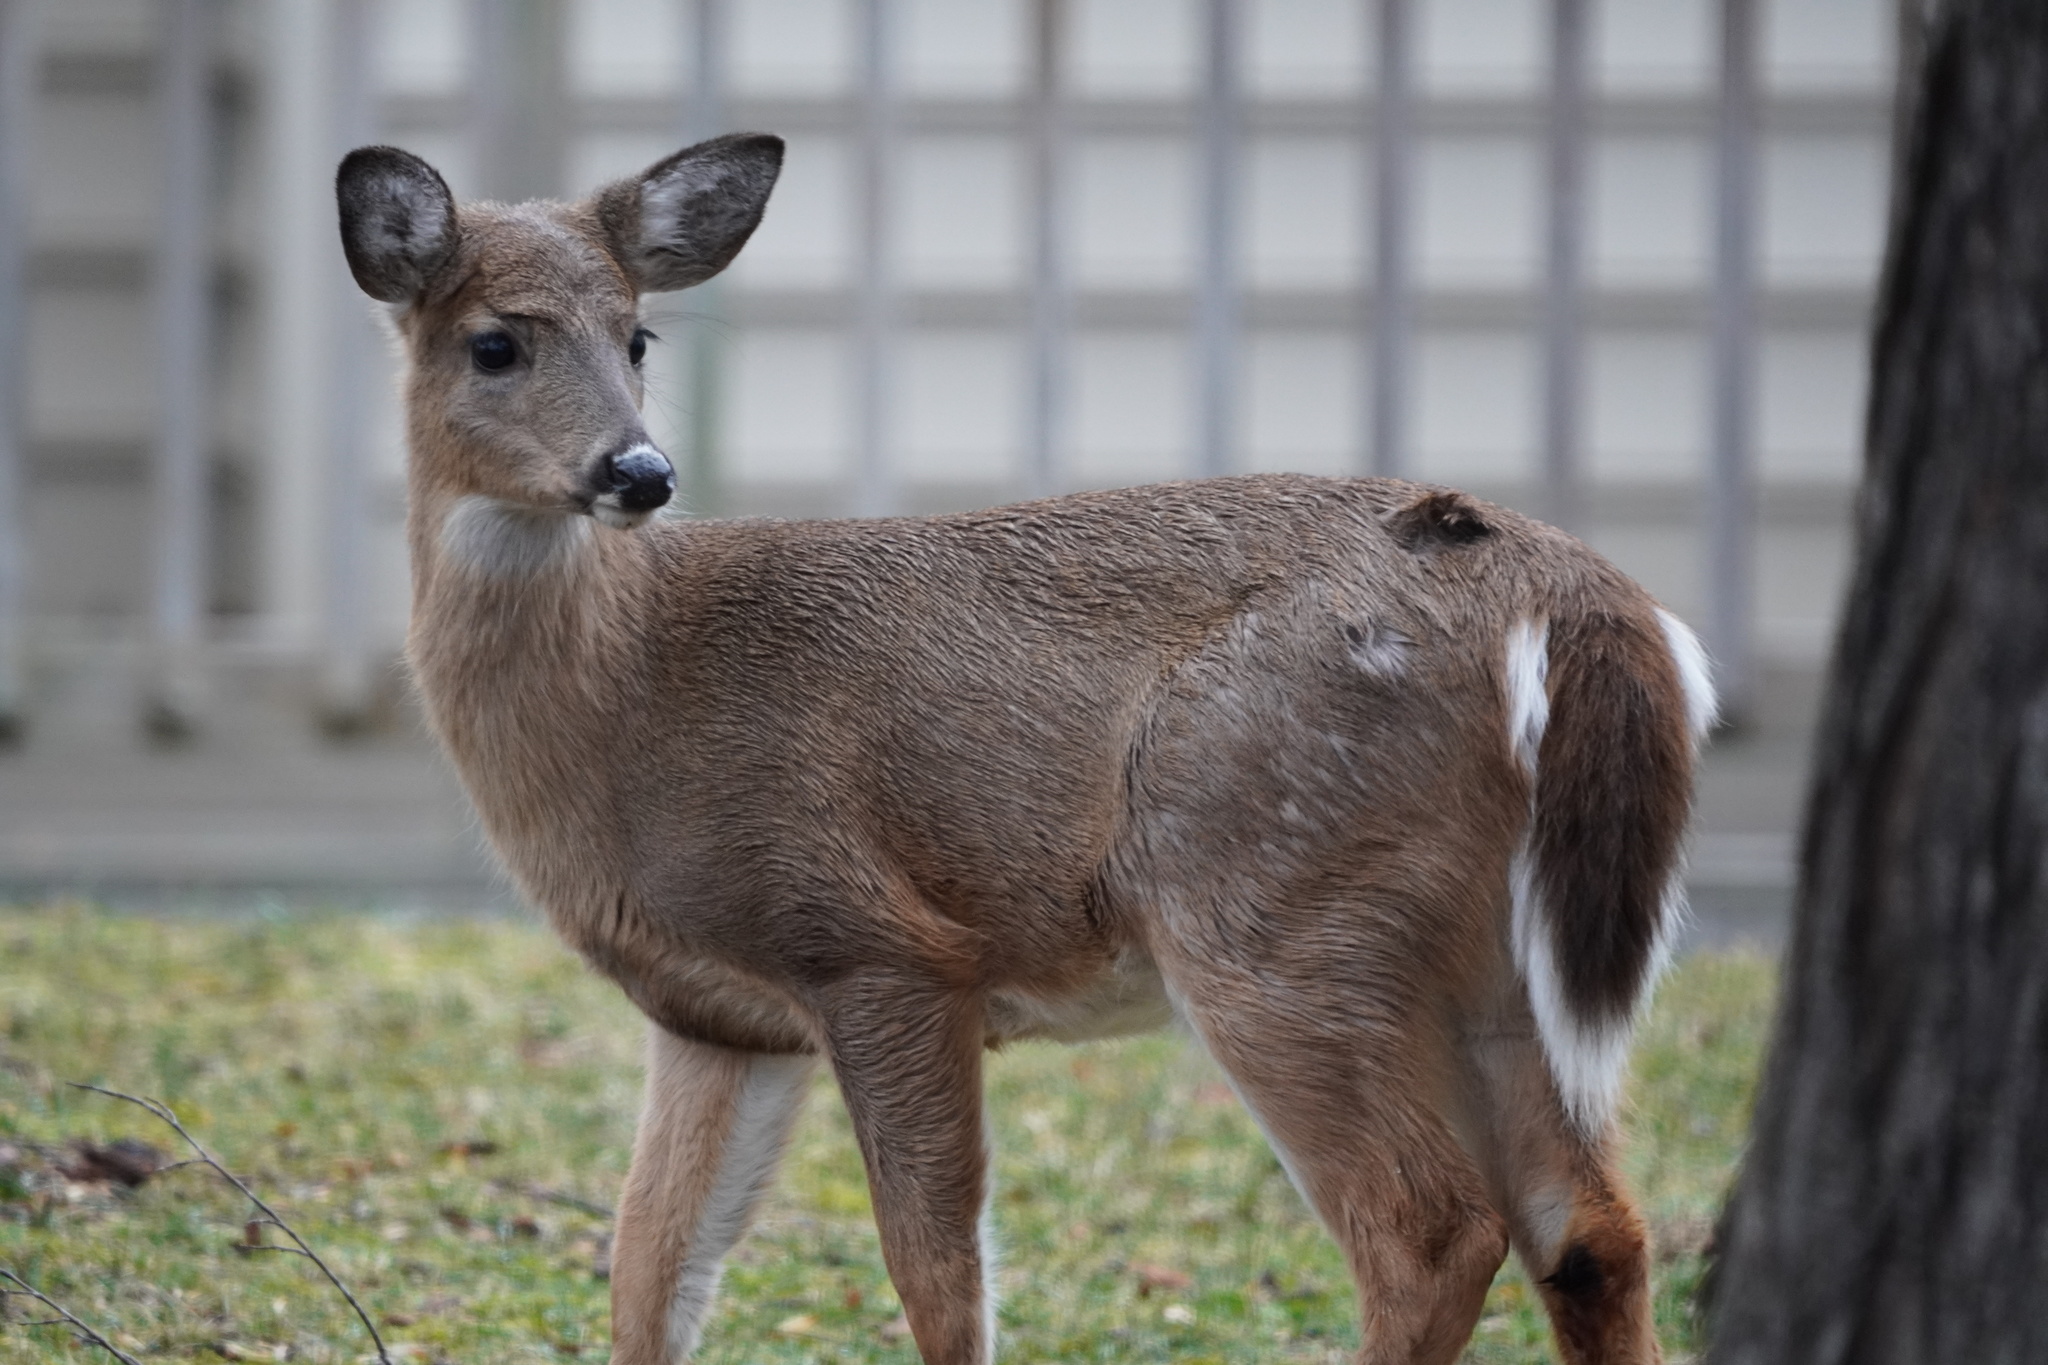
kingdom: Animalia
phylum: Chordata
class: Mammalia
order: Artiodactyla
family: Cervidae
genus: Odocoileus
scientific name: Odocoileus virginianus
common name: White-tailed deer
